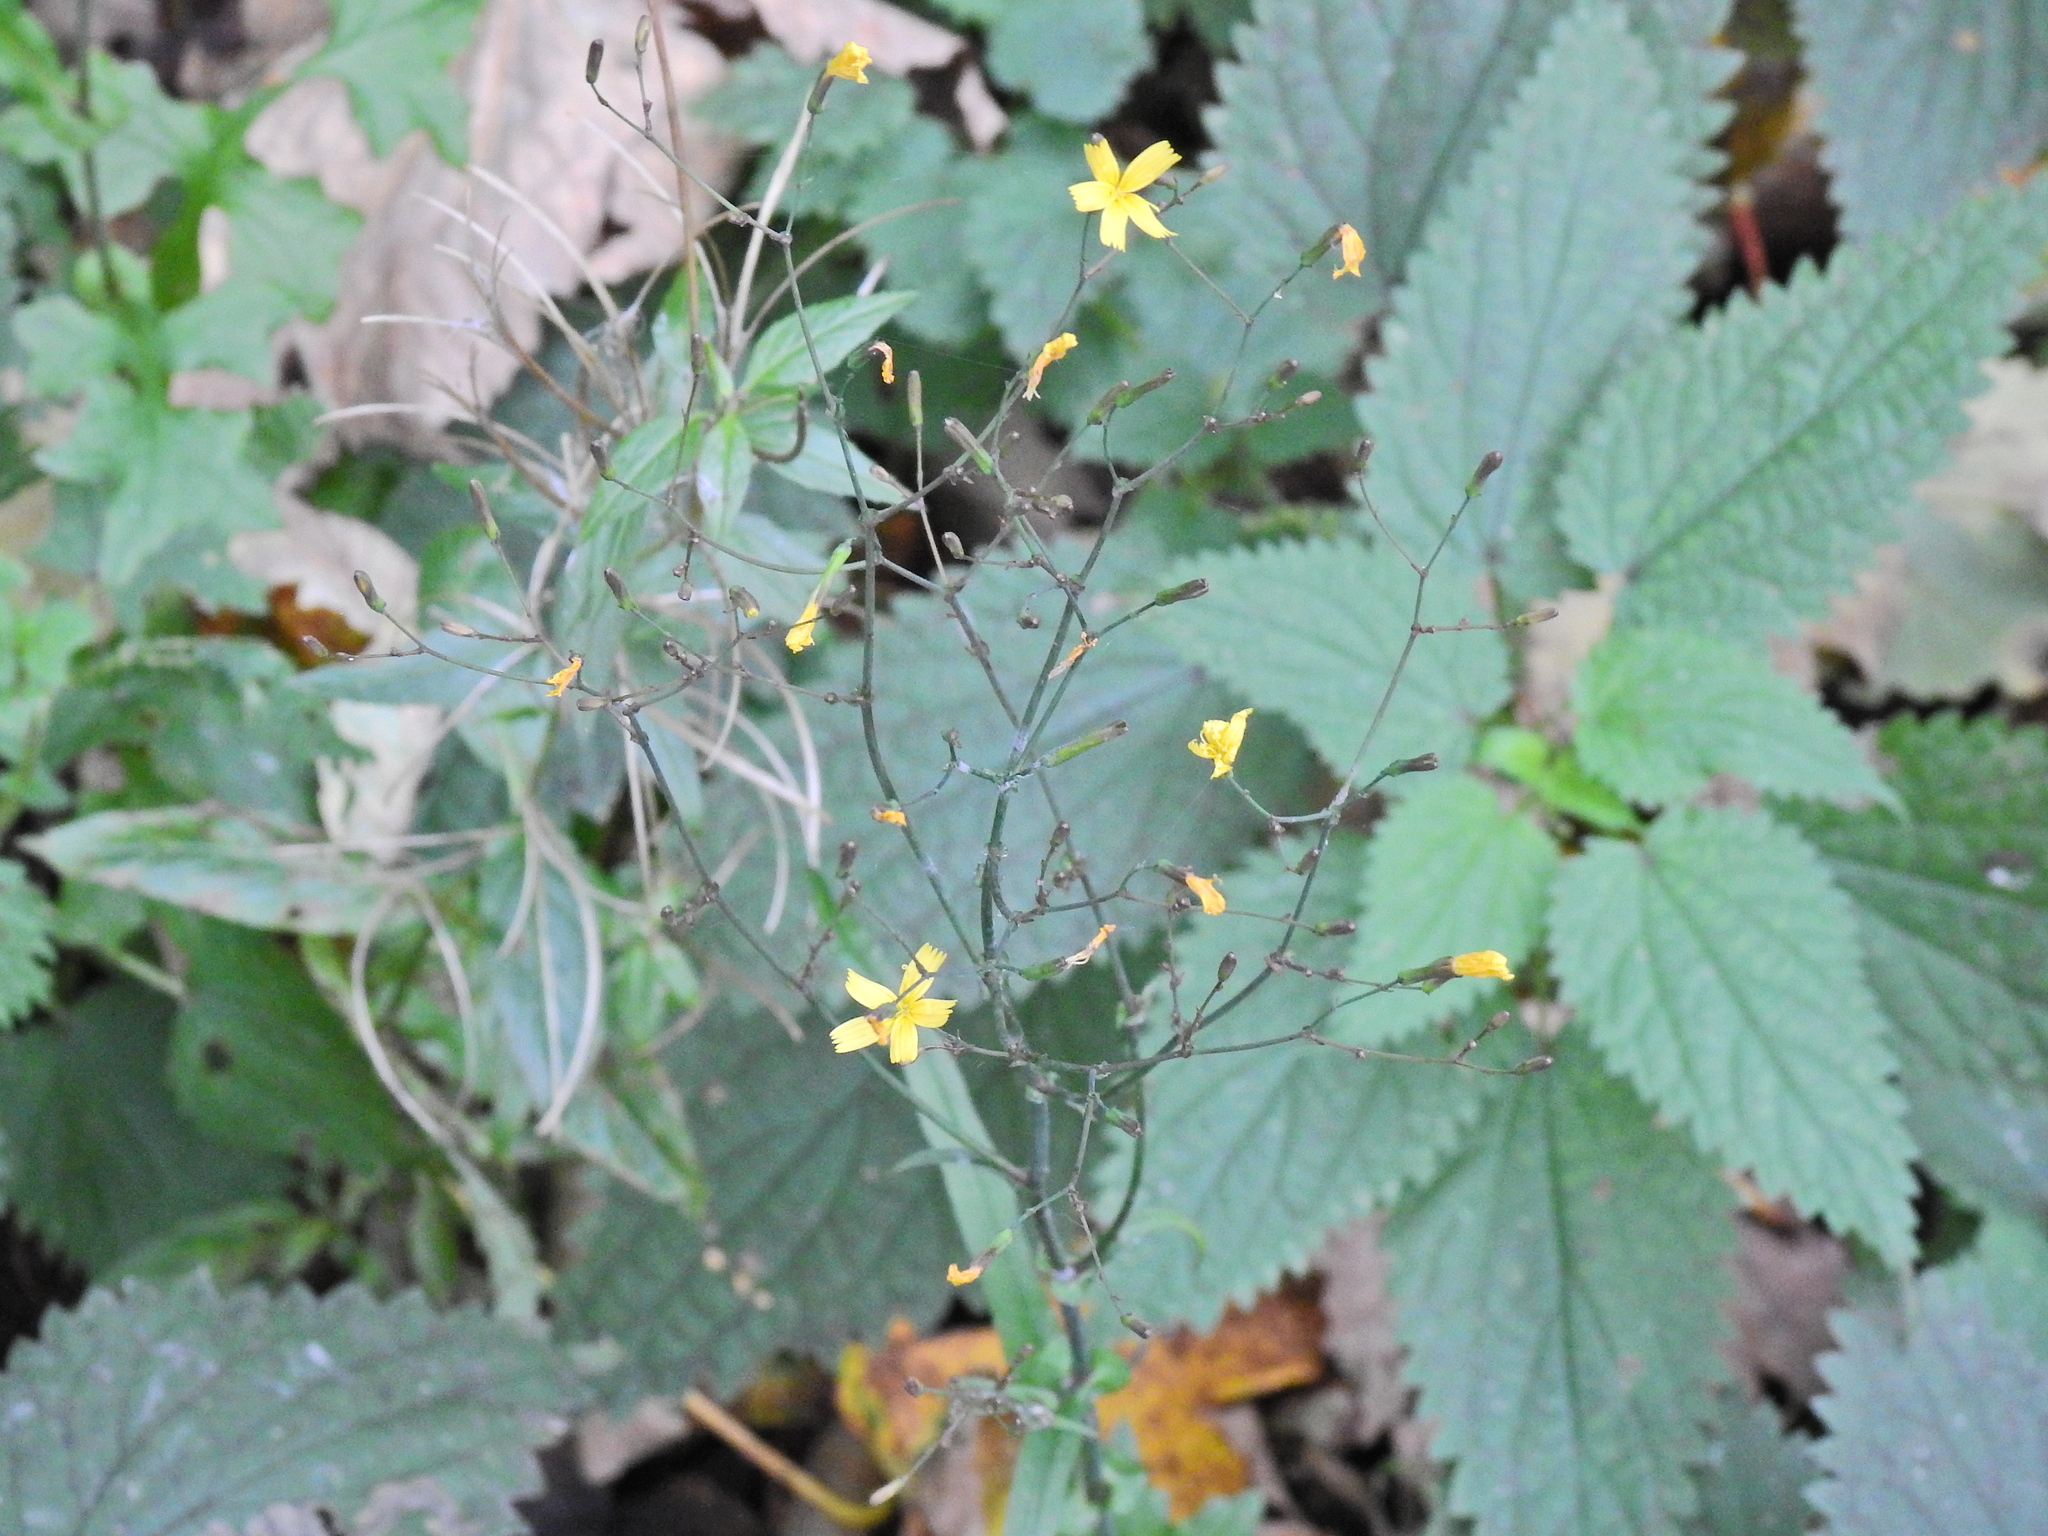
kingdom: Plantae
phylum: Tracheophyta
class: Magnoliopsida
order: Asterales
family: Asteraceae
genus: Mycelis
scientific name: Mycelis muralis
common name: Wall lettuce
